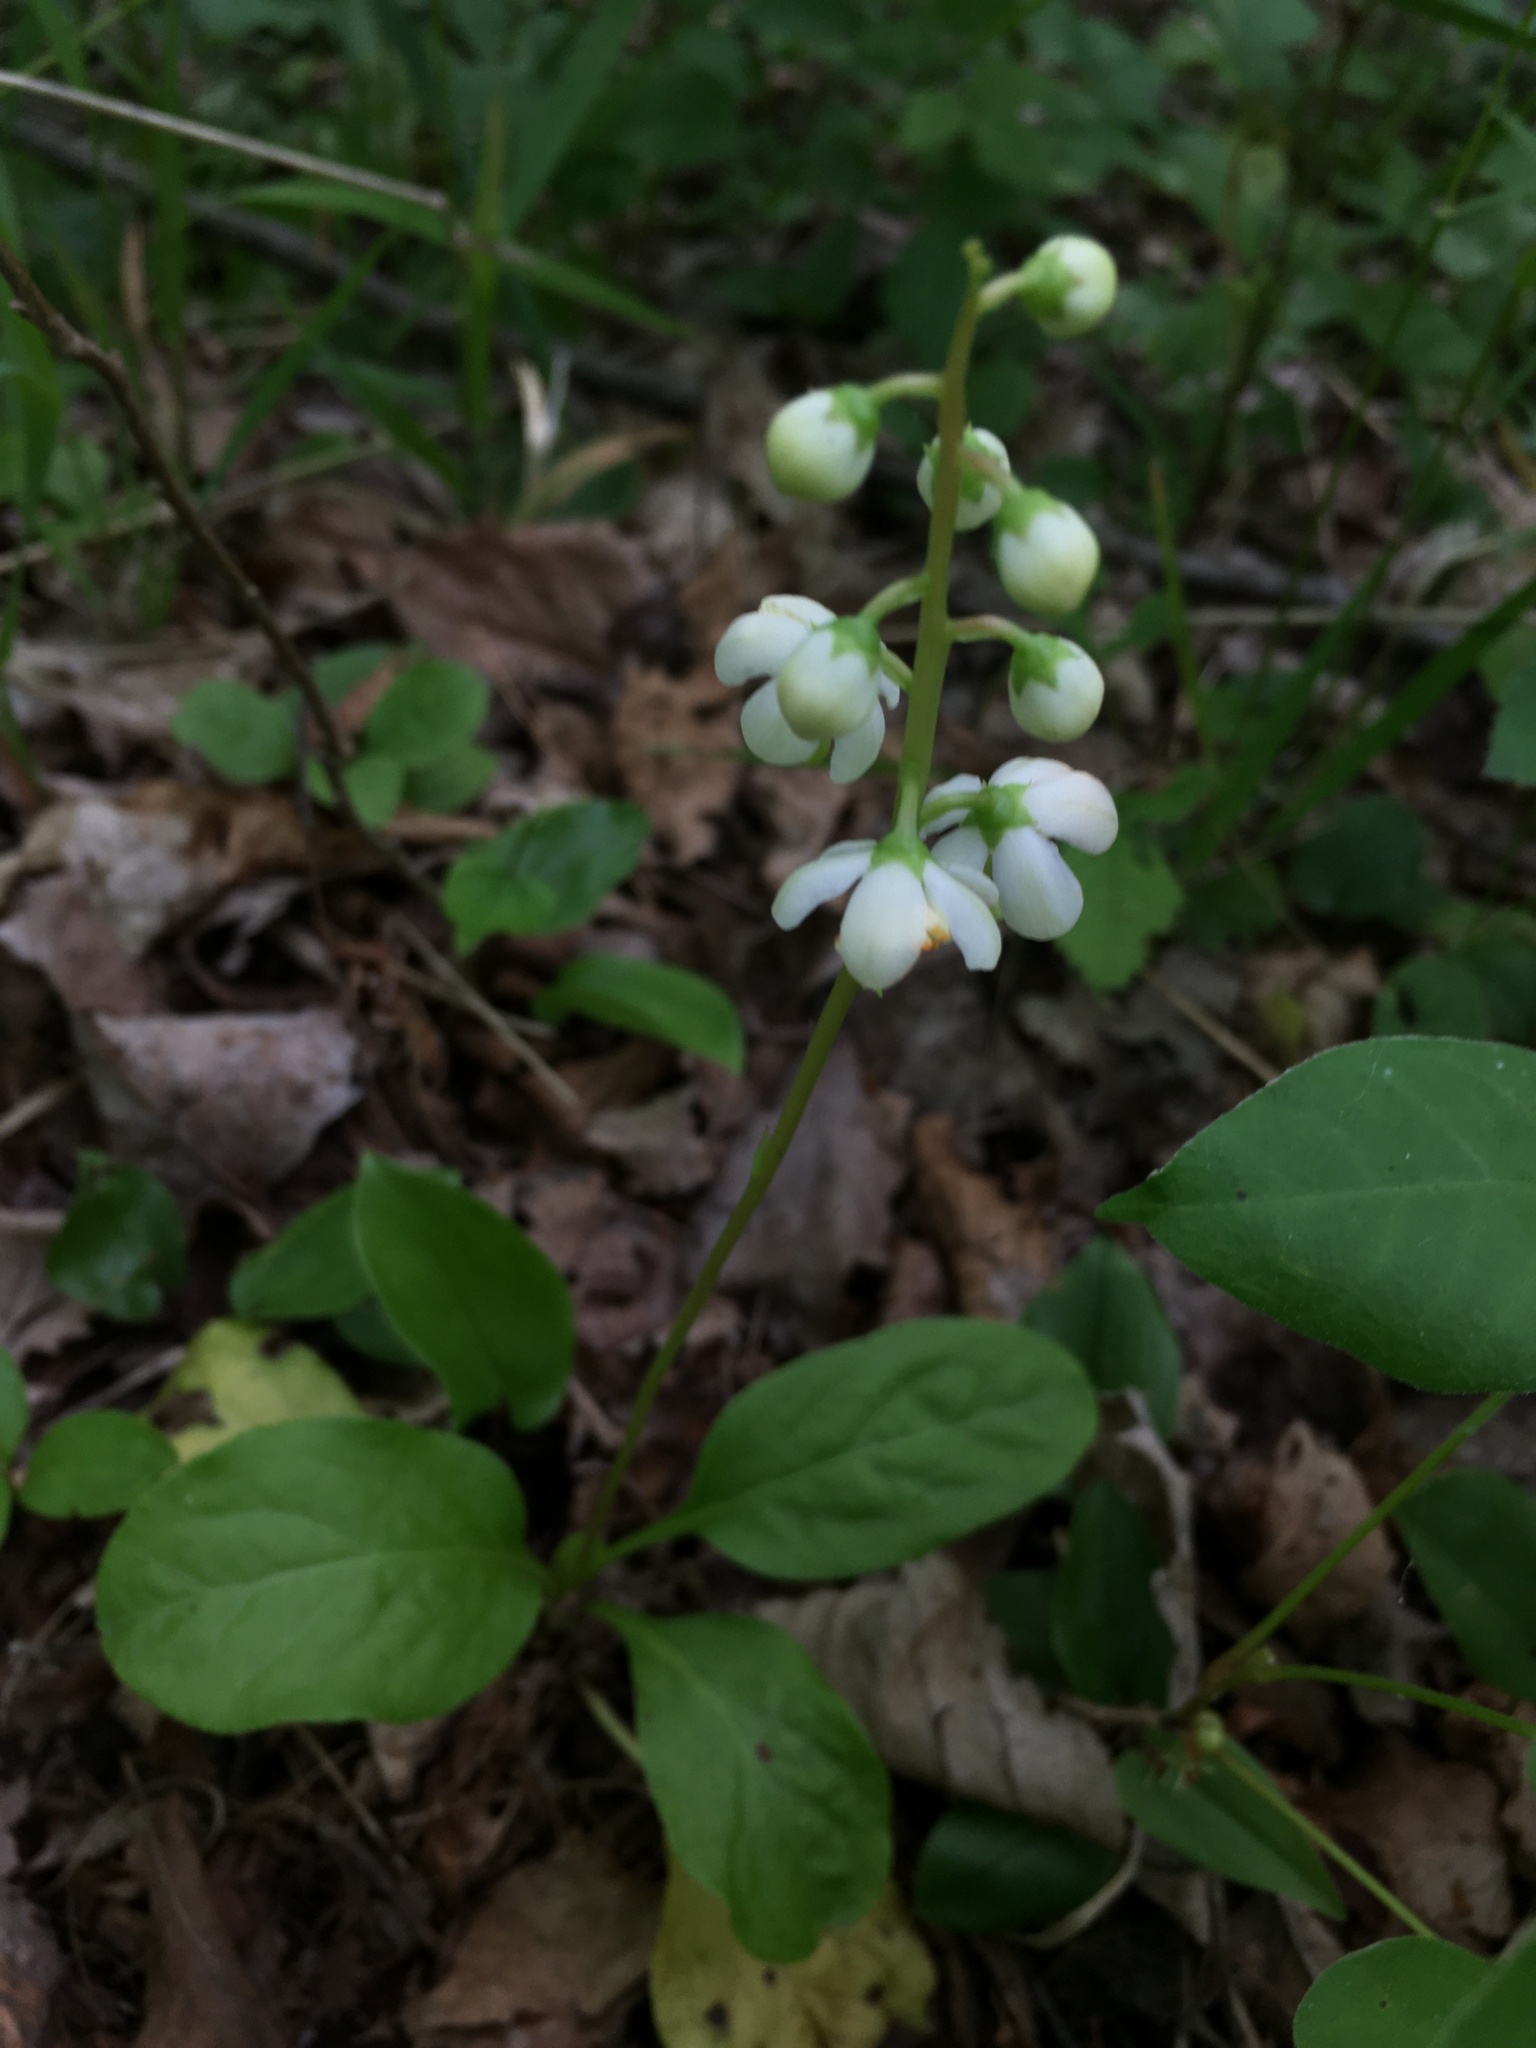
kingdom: Plantae
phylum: Tracheophyta
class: Magnoliopsida
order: Ericales
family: Ericaceae
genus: Pyrola
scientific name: Pyrola elliptica
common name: Shinleaf
